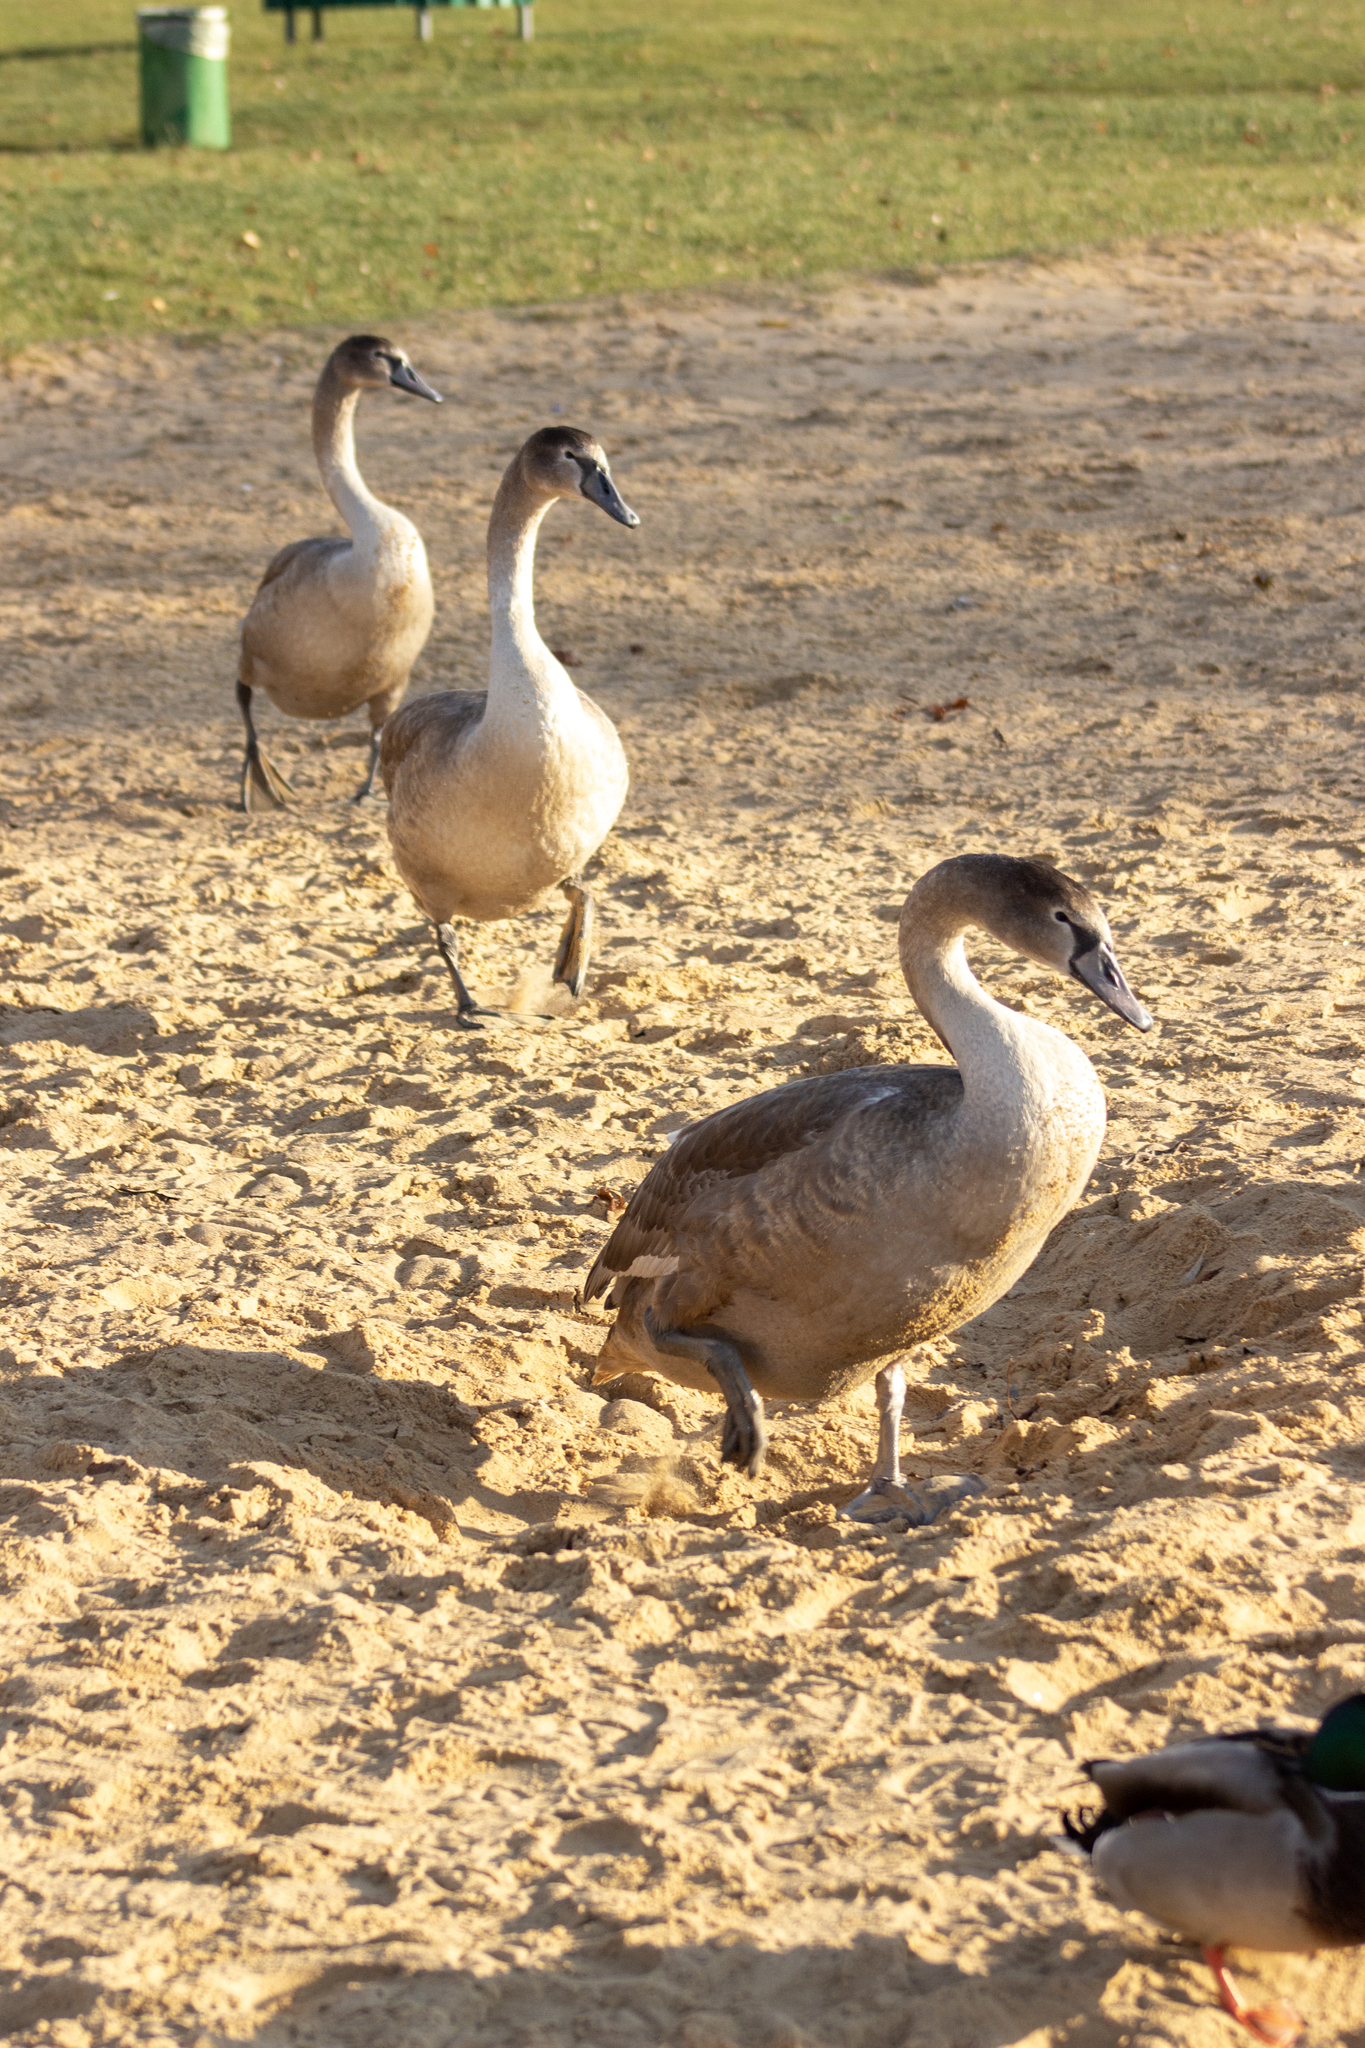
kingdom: Animalia
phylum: Chordata
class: Aves
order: Anseriformes
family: Anatidae
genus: Cygnus
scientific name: Cygnus olor
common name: Mute swan
